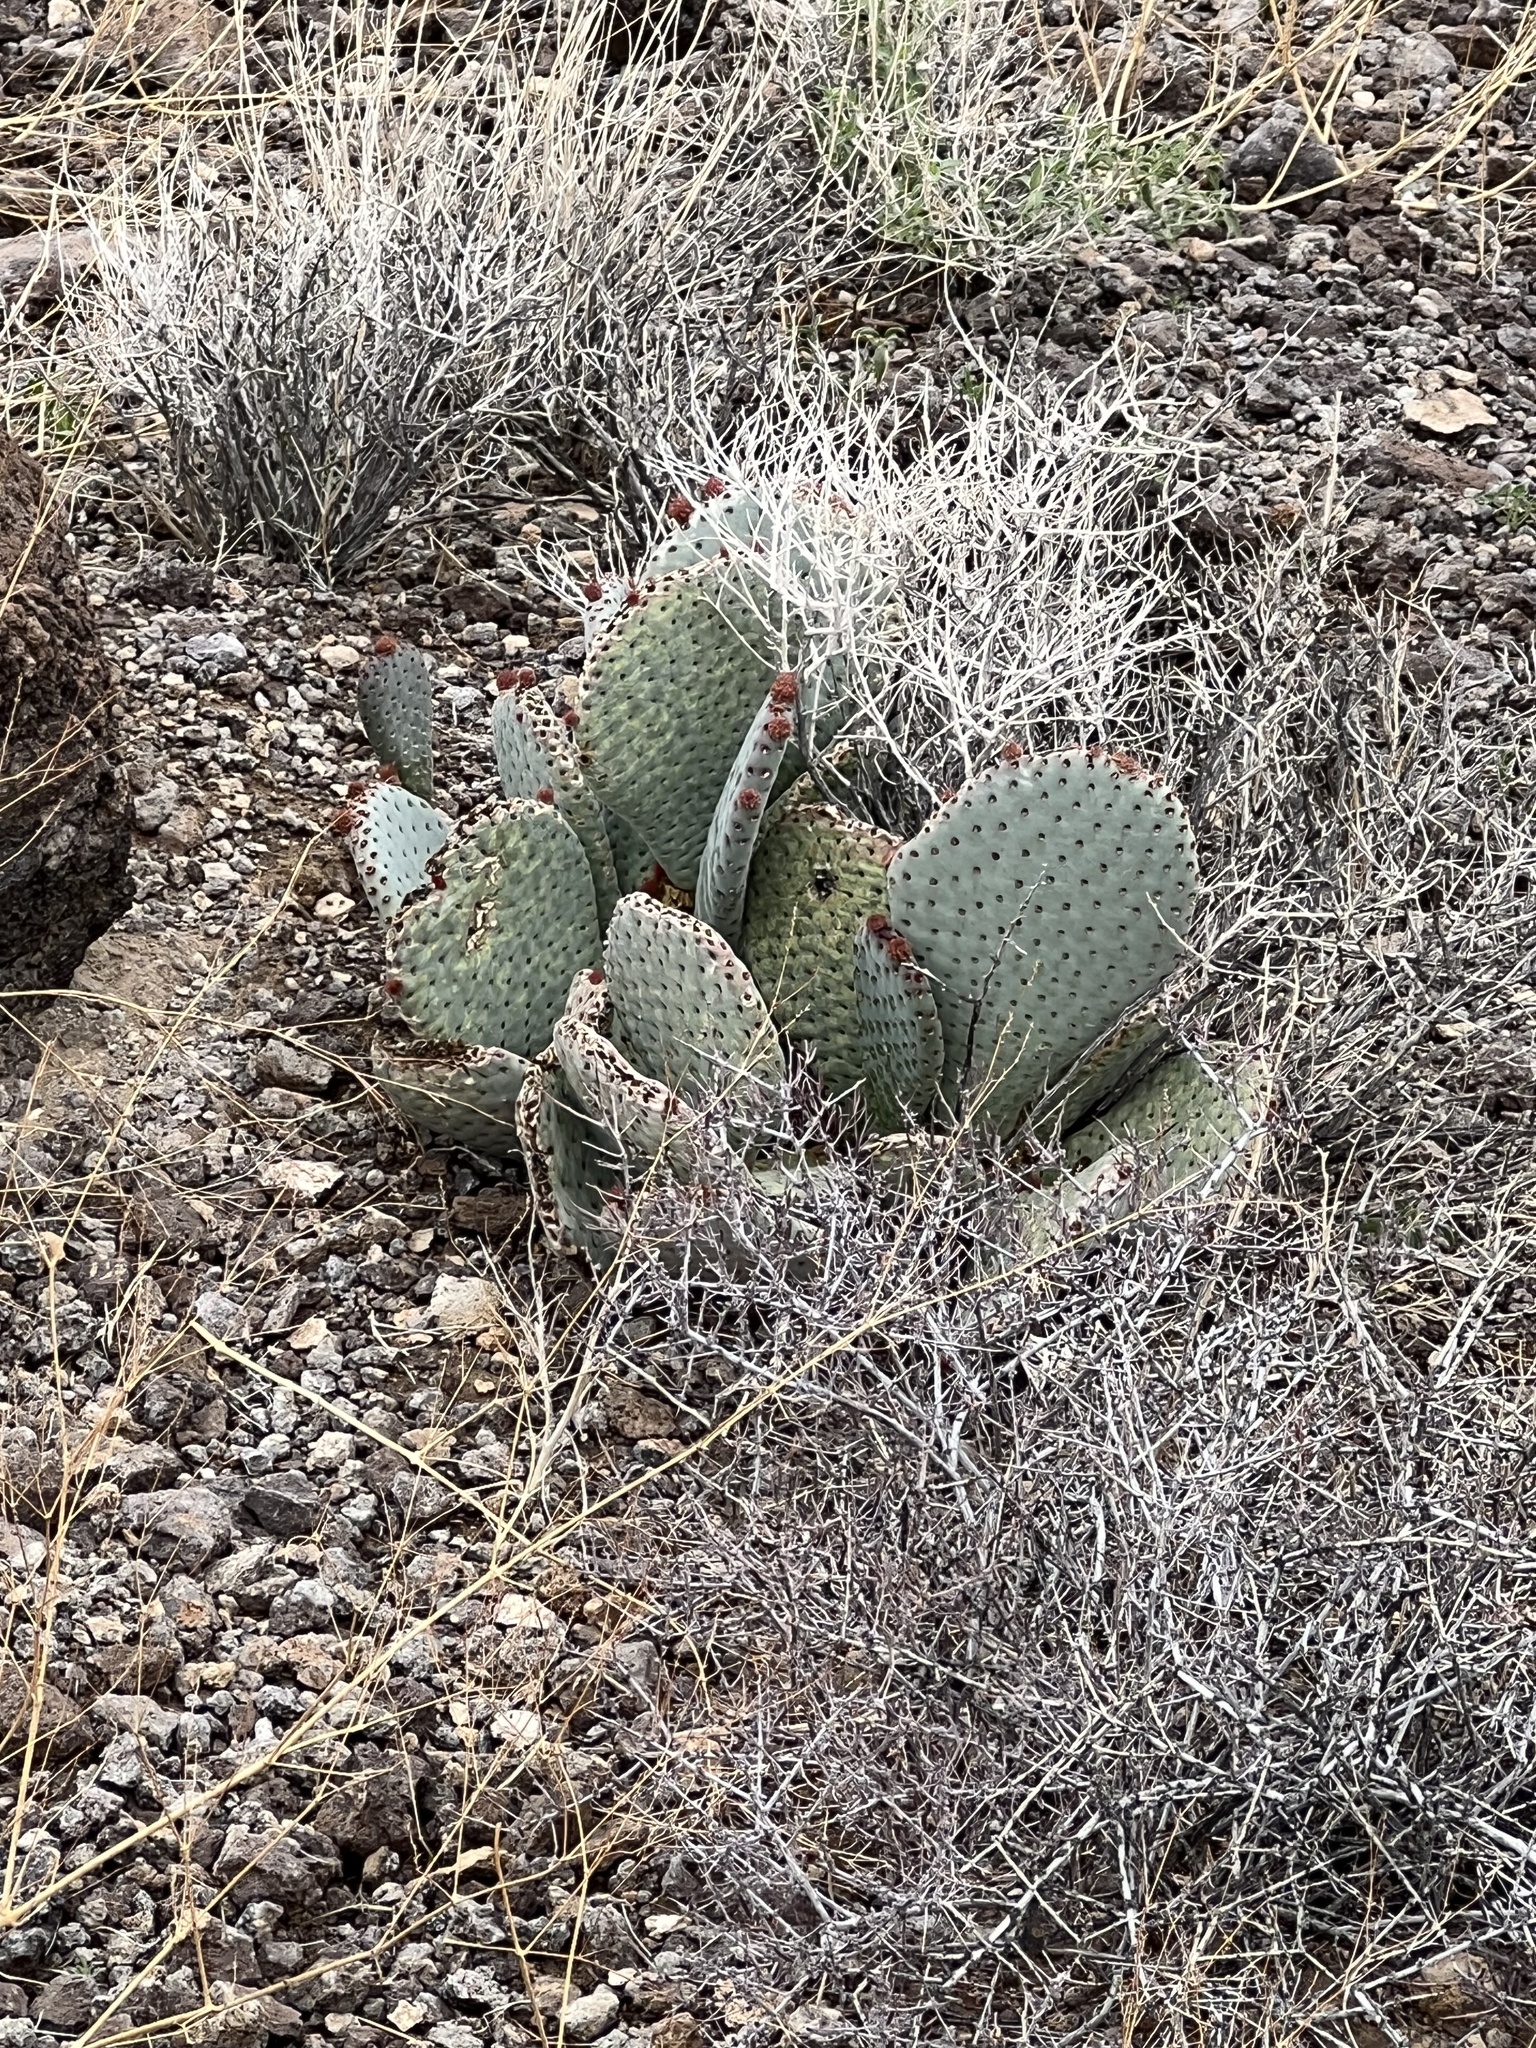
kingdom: Plantae
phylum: Tracheophyta
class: Magnoliopsida
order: Caryophyllales
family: Cactaceae
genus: Opuntia
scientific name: Opuntia basilaris
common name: Beavertail prickly-pear
